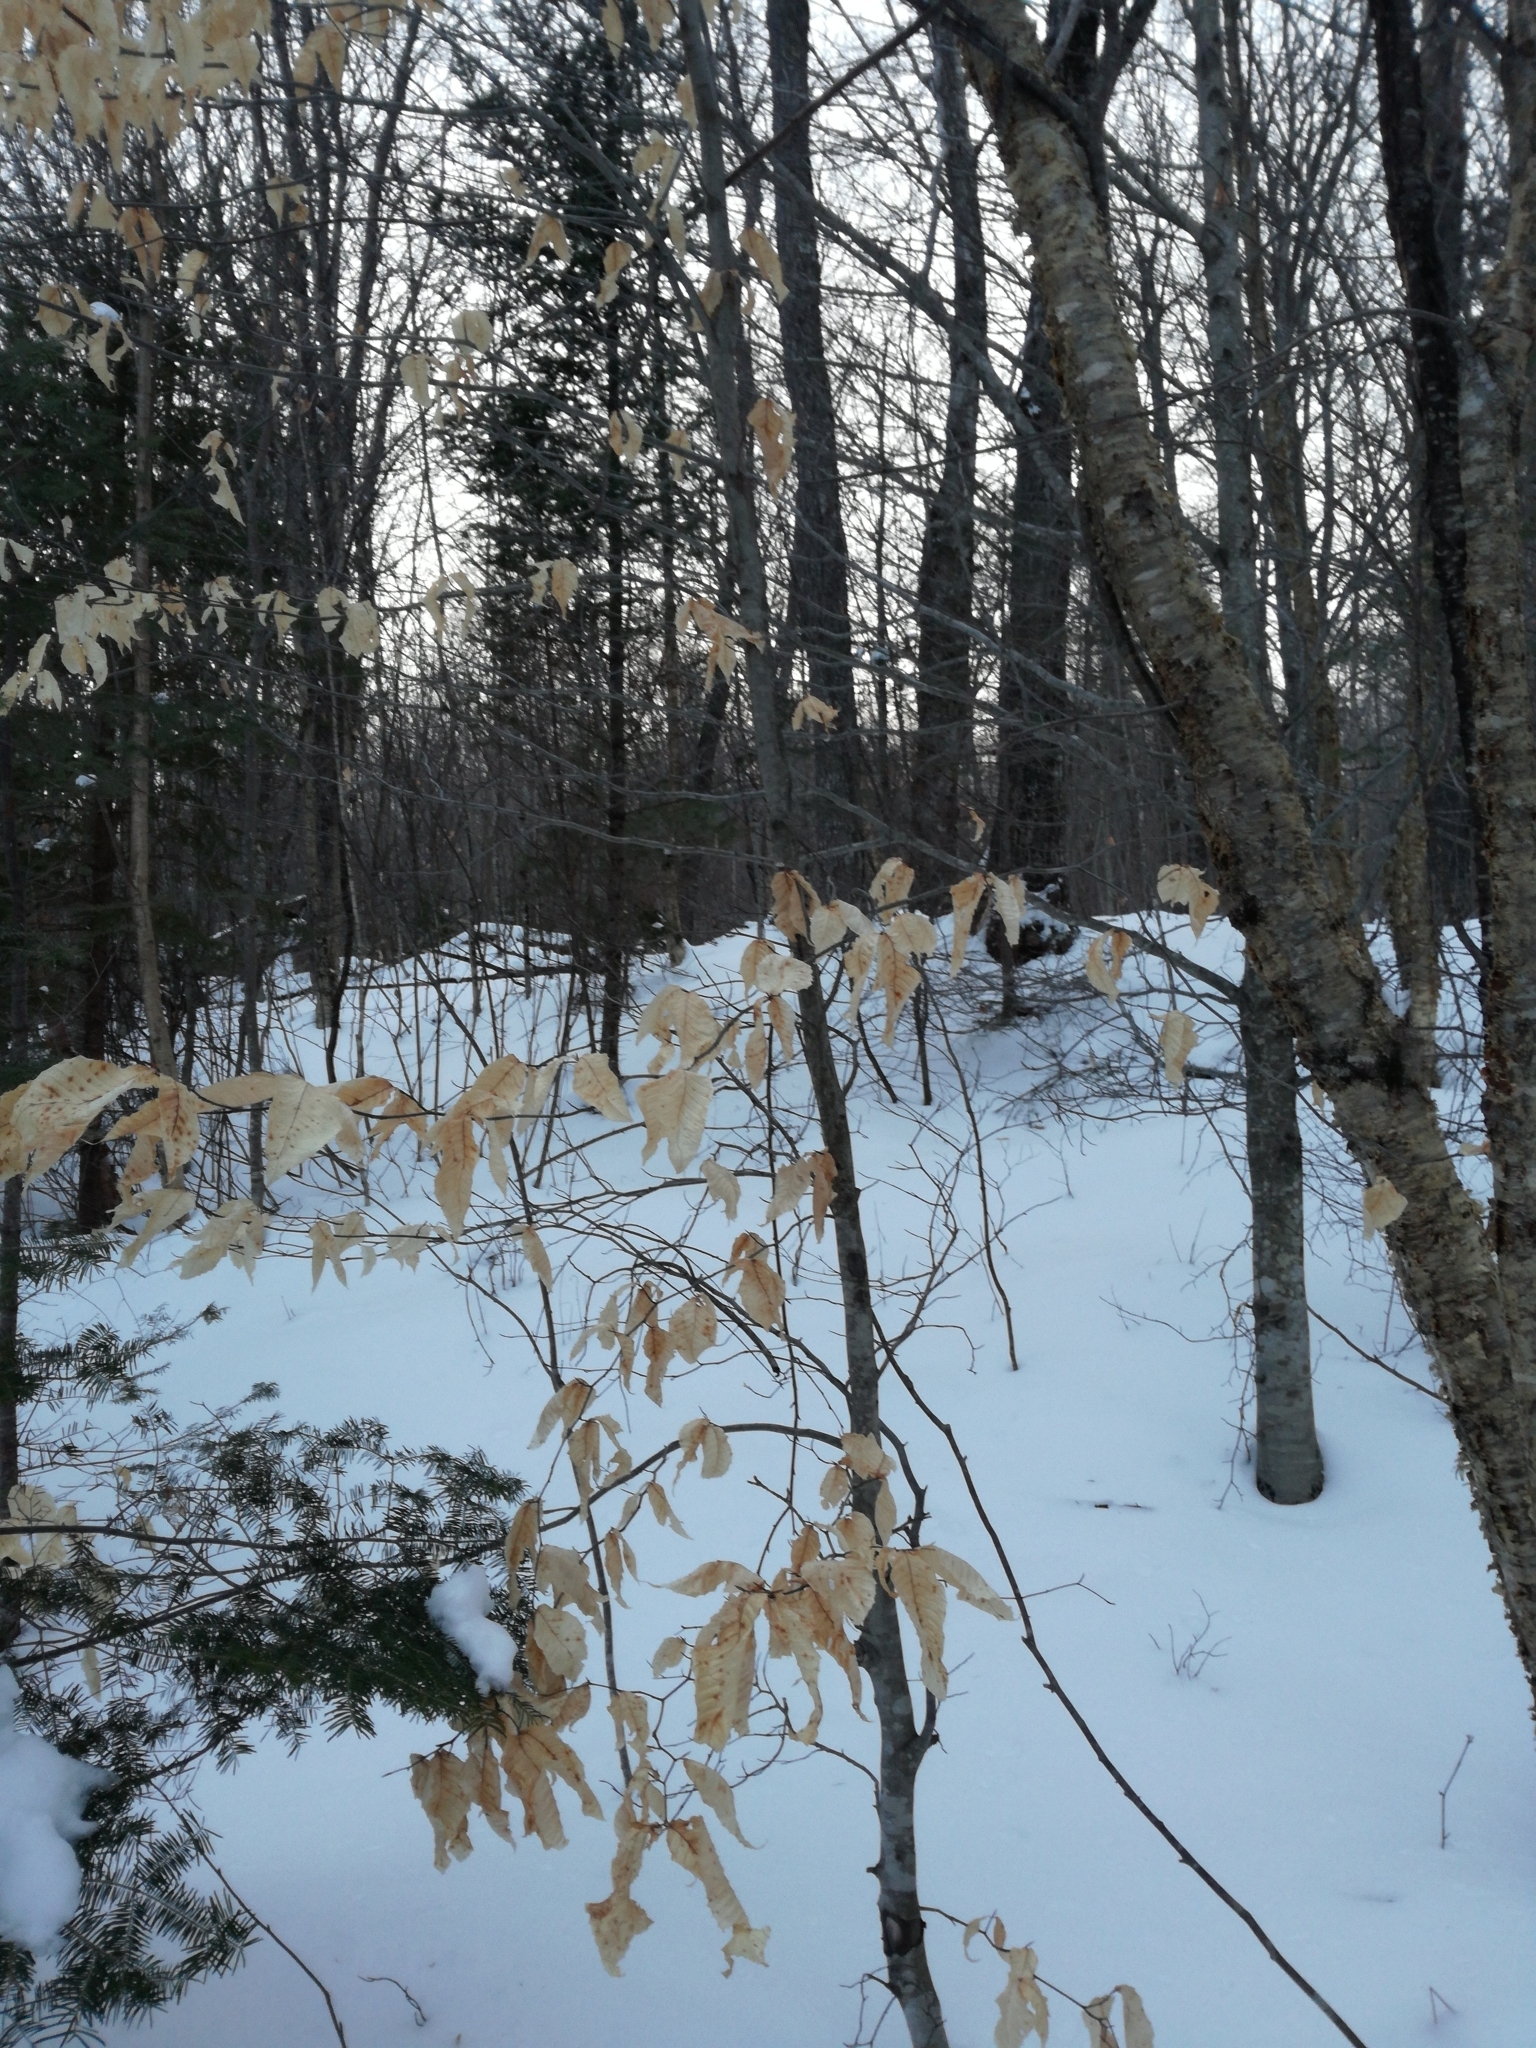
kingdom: Plantae
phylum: Tracheophyta
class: Magnoliopsida
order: Fagales
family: Fagaceae
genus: Fagus
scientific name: Fagus grandifolia
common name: American beech
